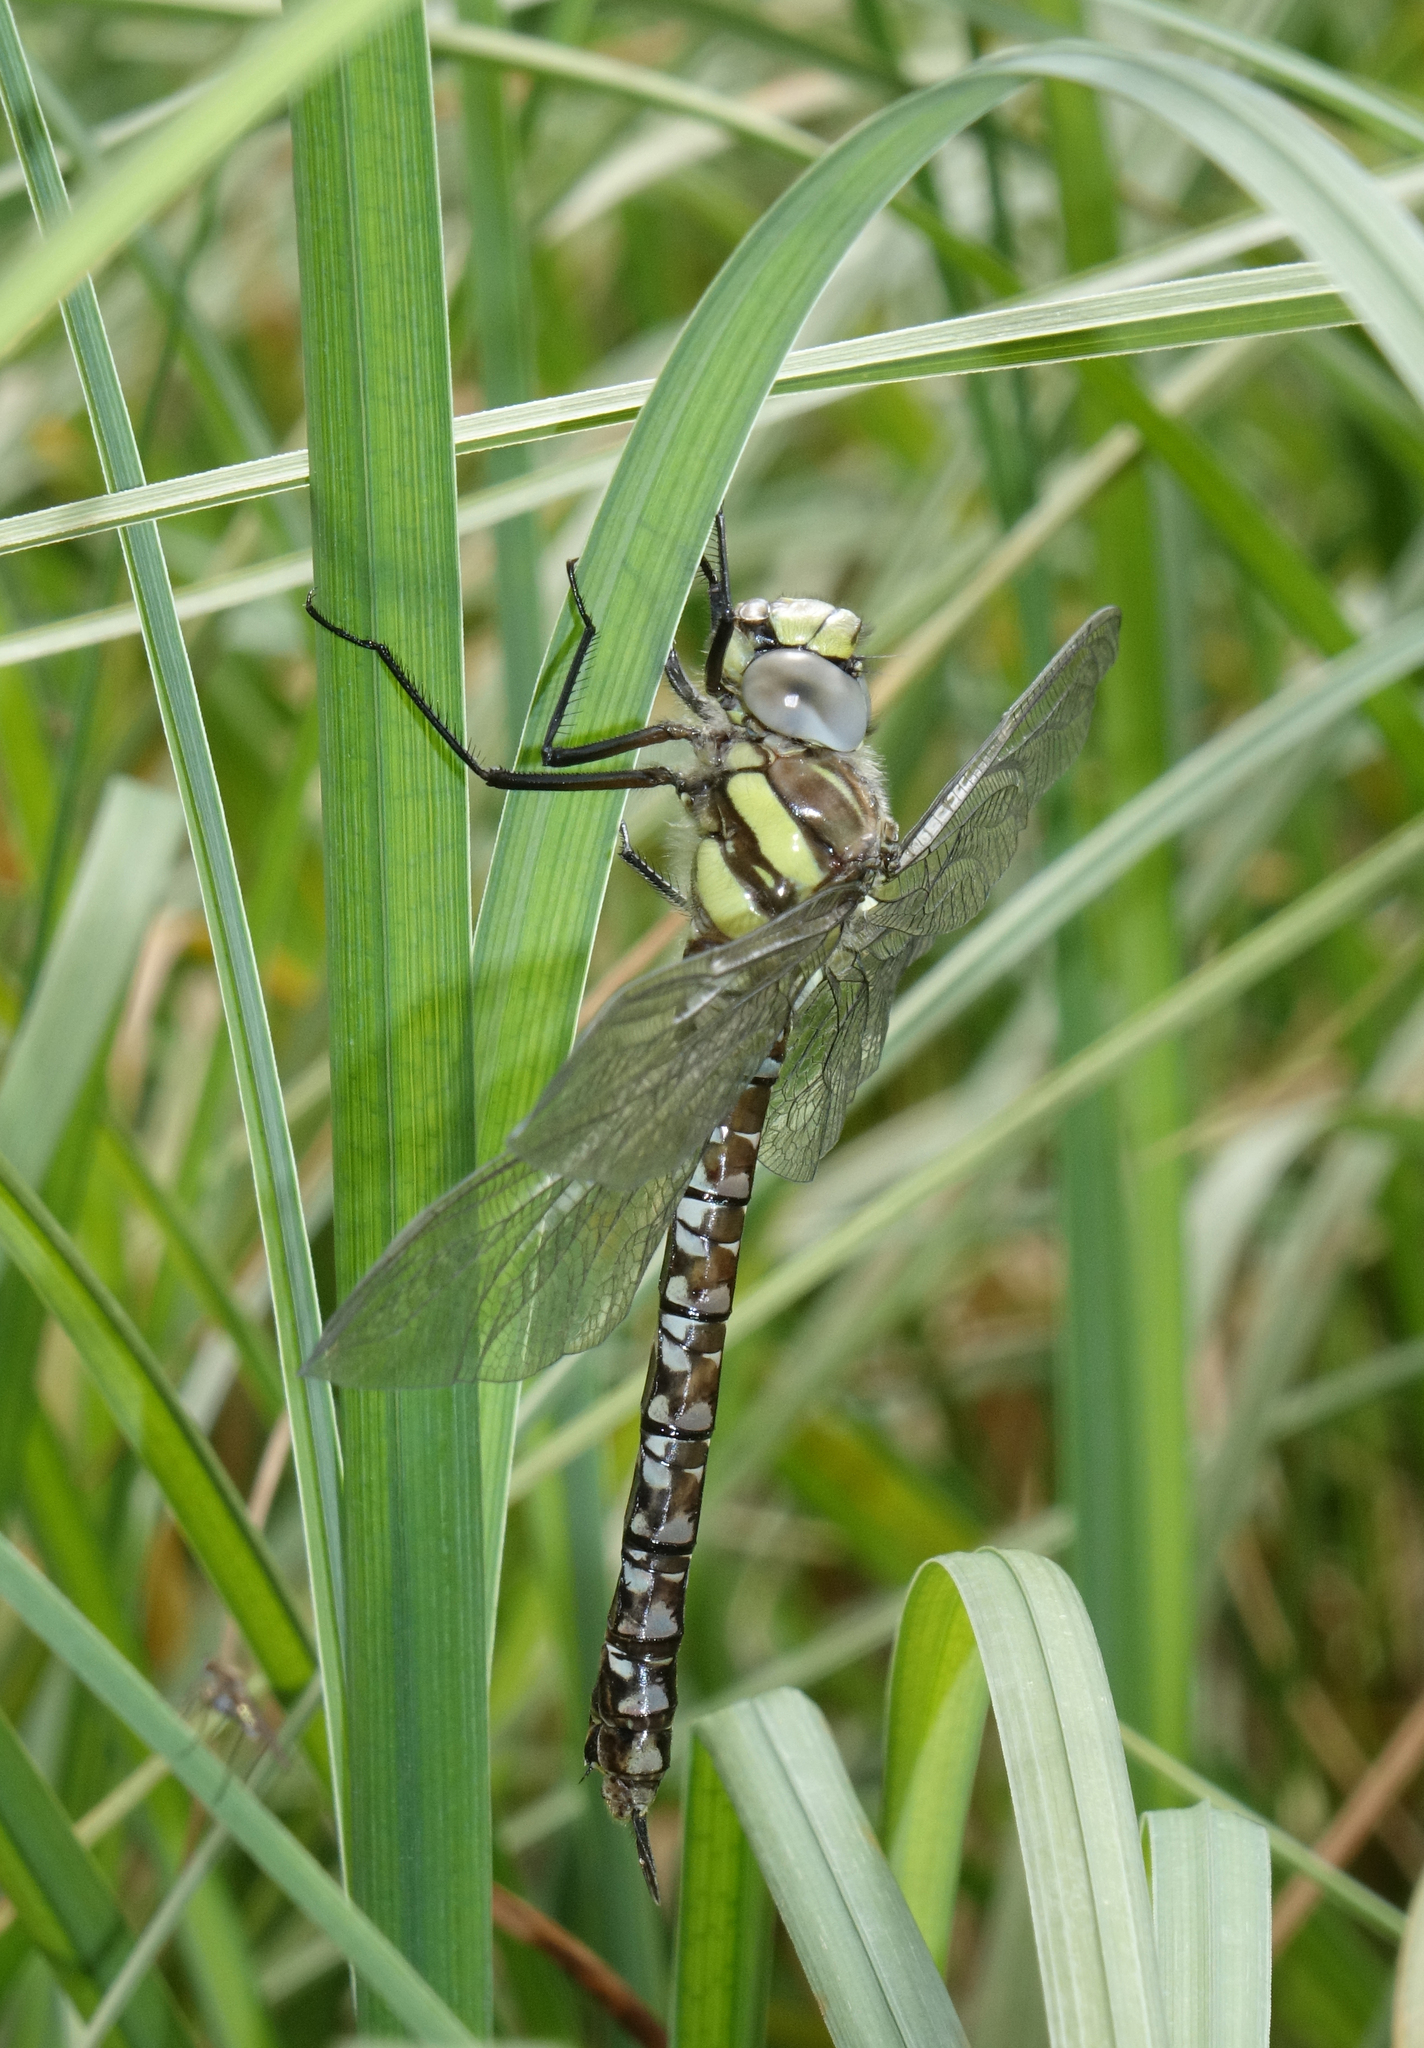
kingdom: Animalia
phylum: Arthropoda
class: Insecta
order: Odonata
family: Aeshnidae
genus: Aeshna
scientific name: Aeshna juncea
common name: Moorland hawker
